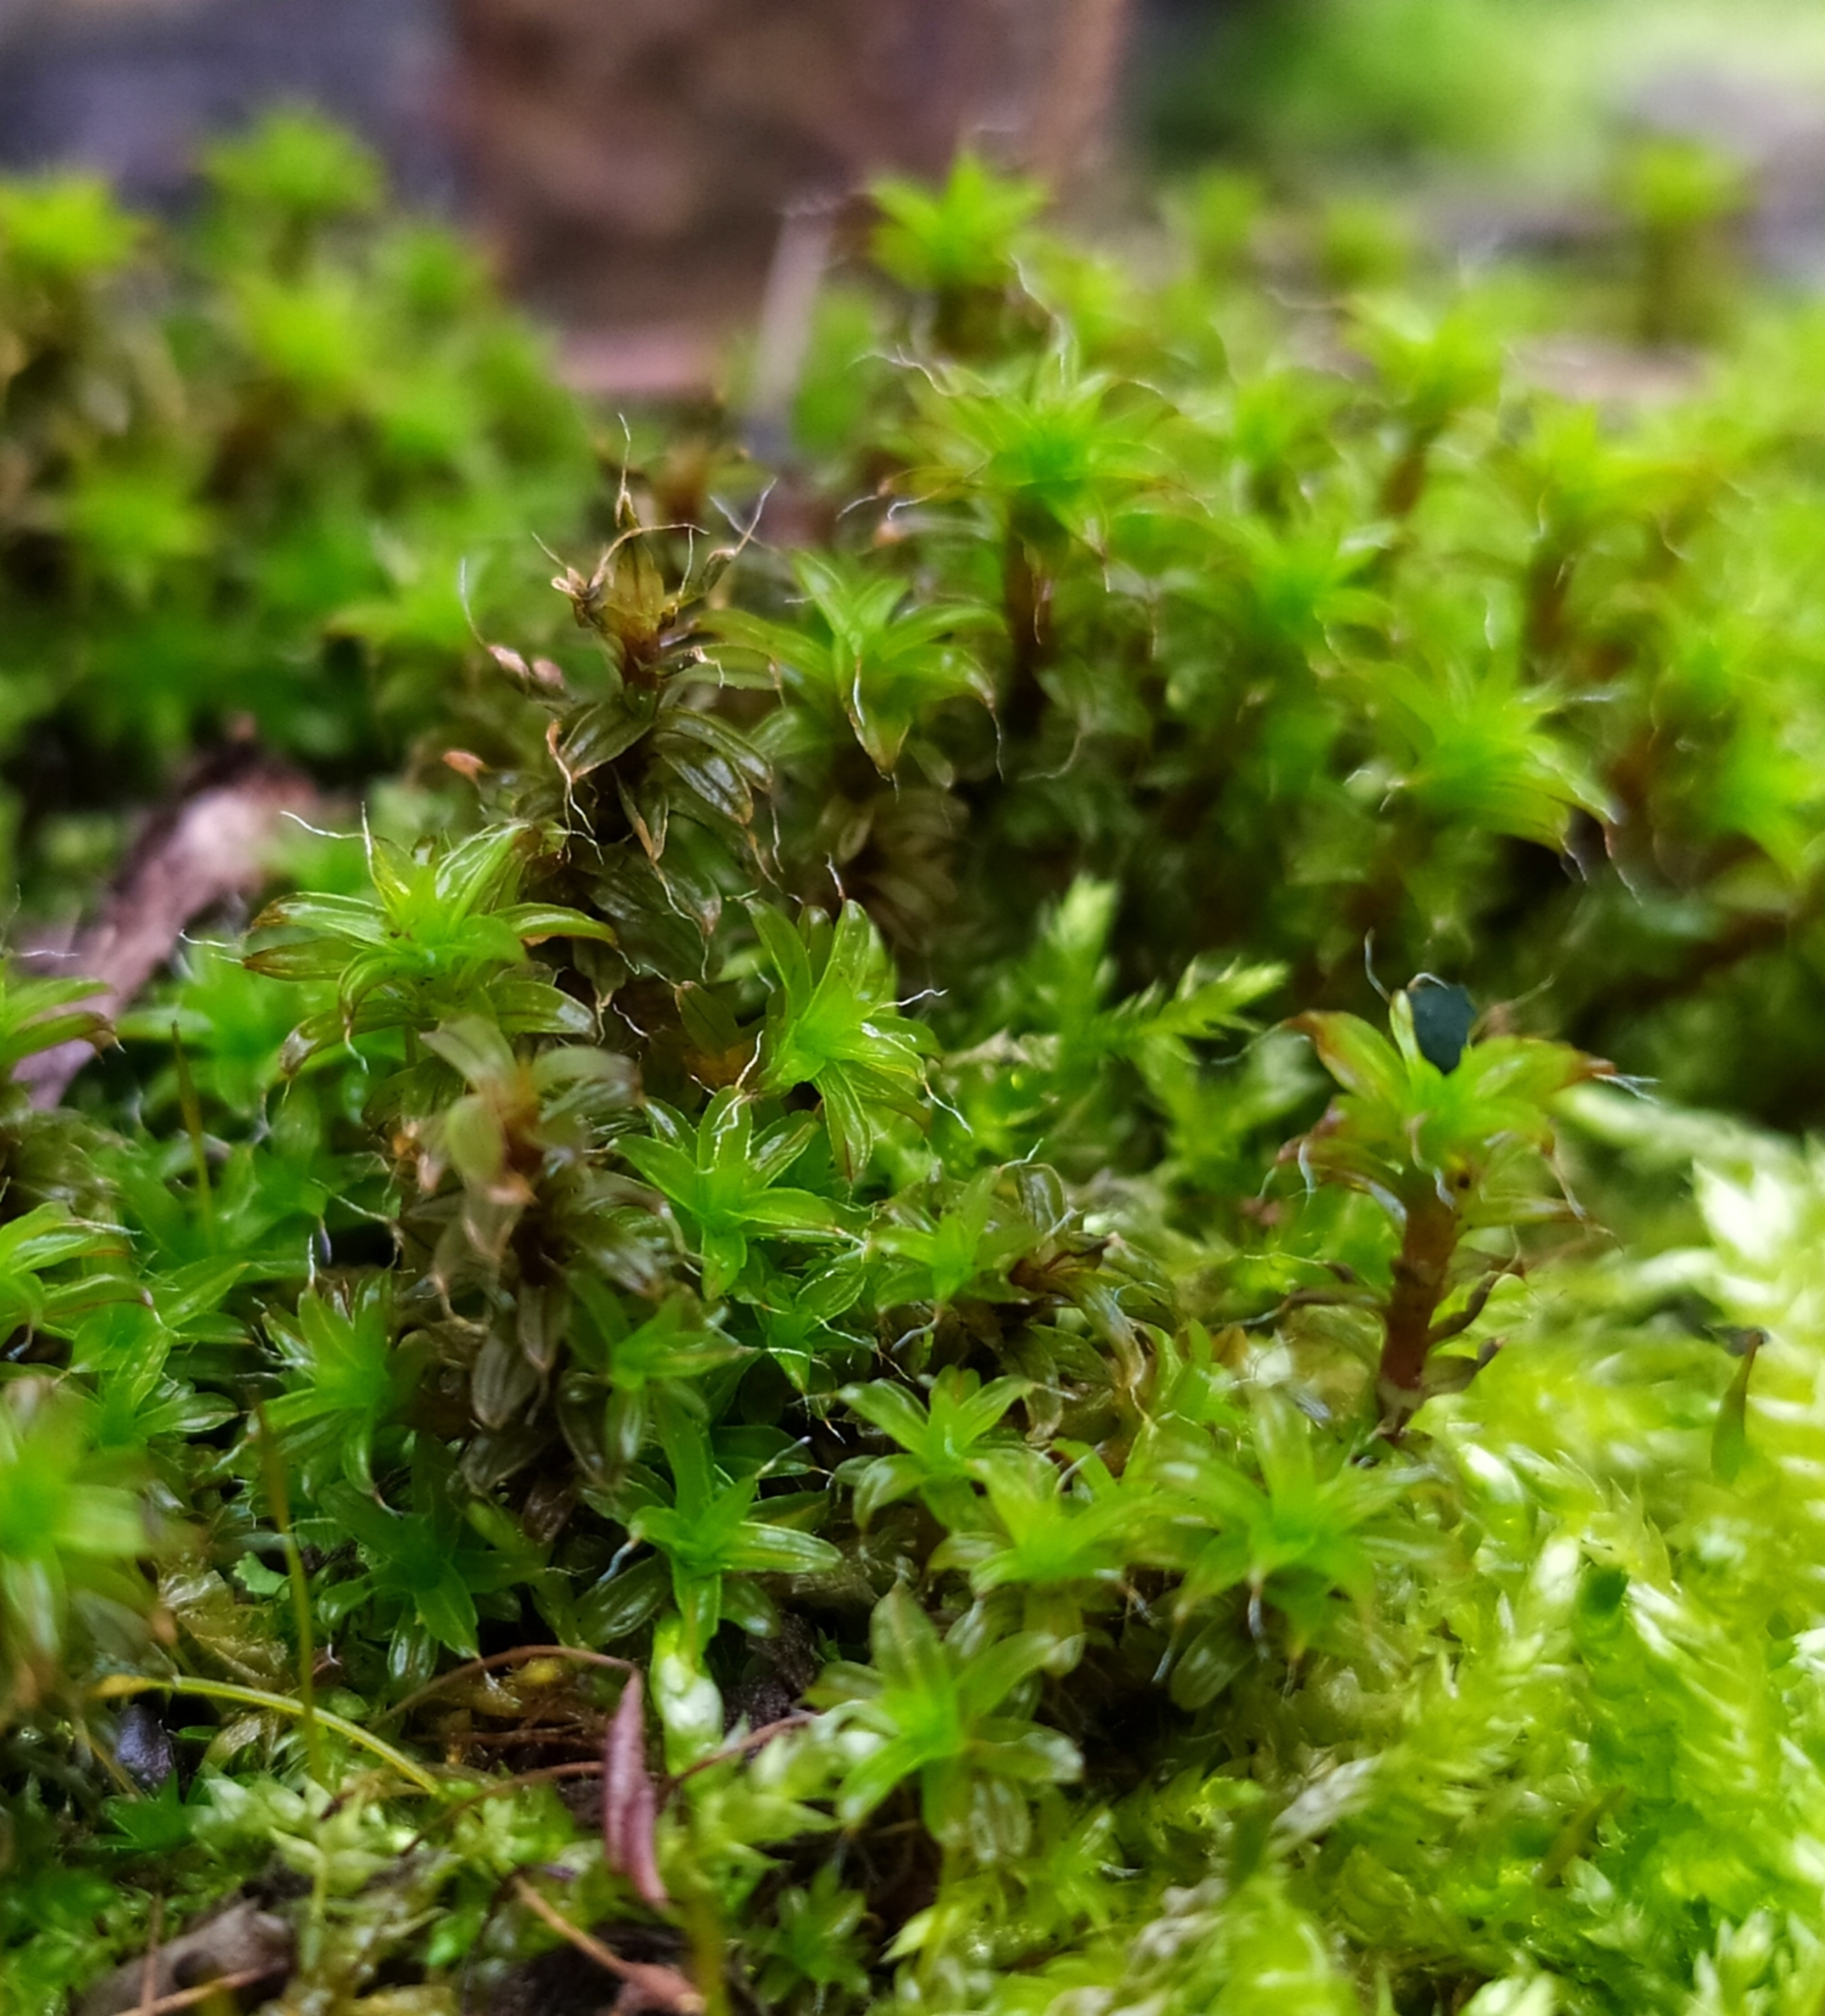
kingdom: Plantae
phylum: Bryophyta
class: Bryopsida
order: Pottiales
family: Pottiaceae
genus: Syntrichia
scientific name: Syntrichia ruralis
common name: Sidewalk screw moss
